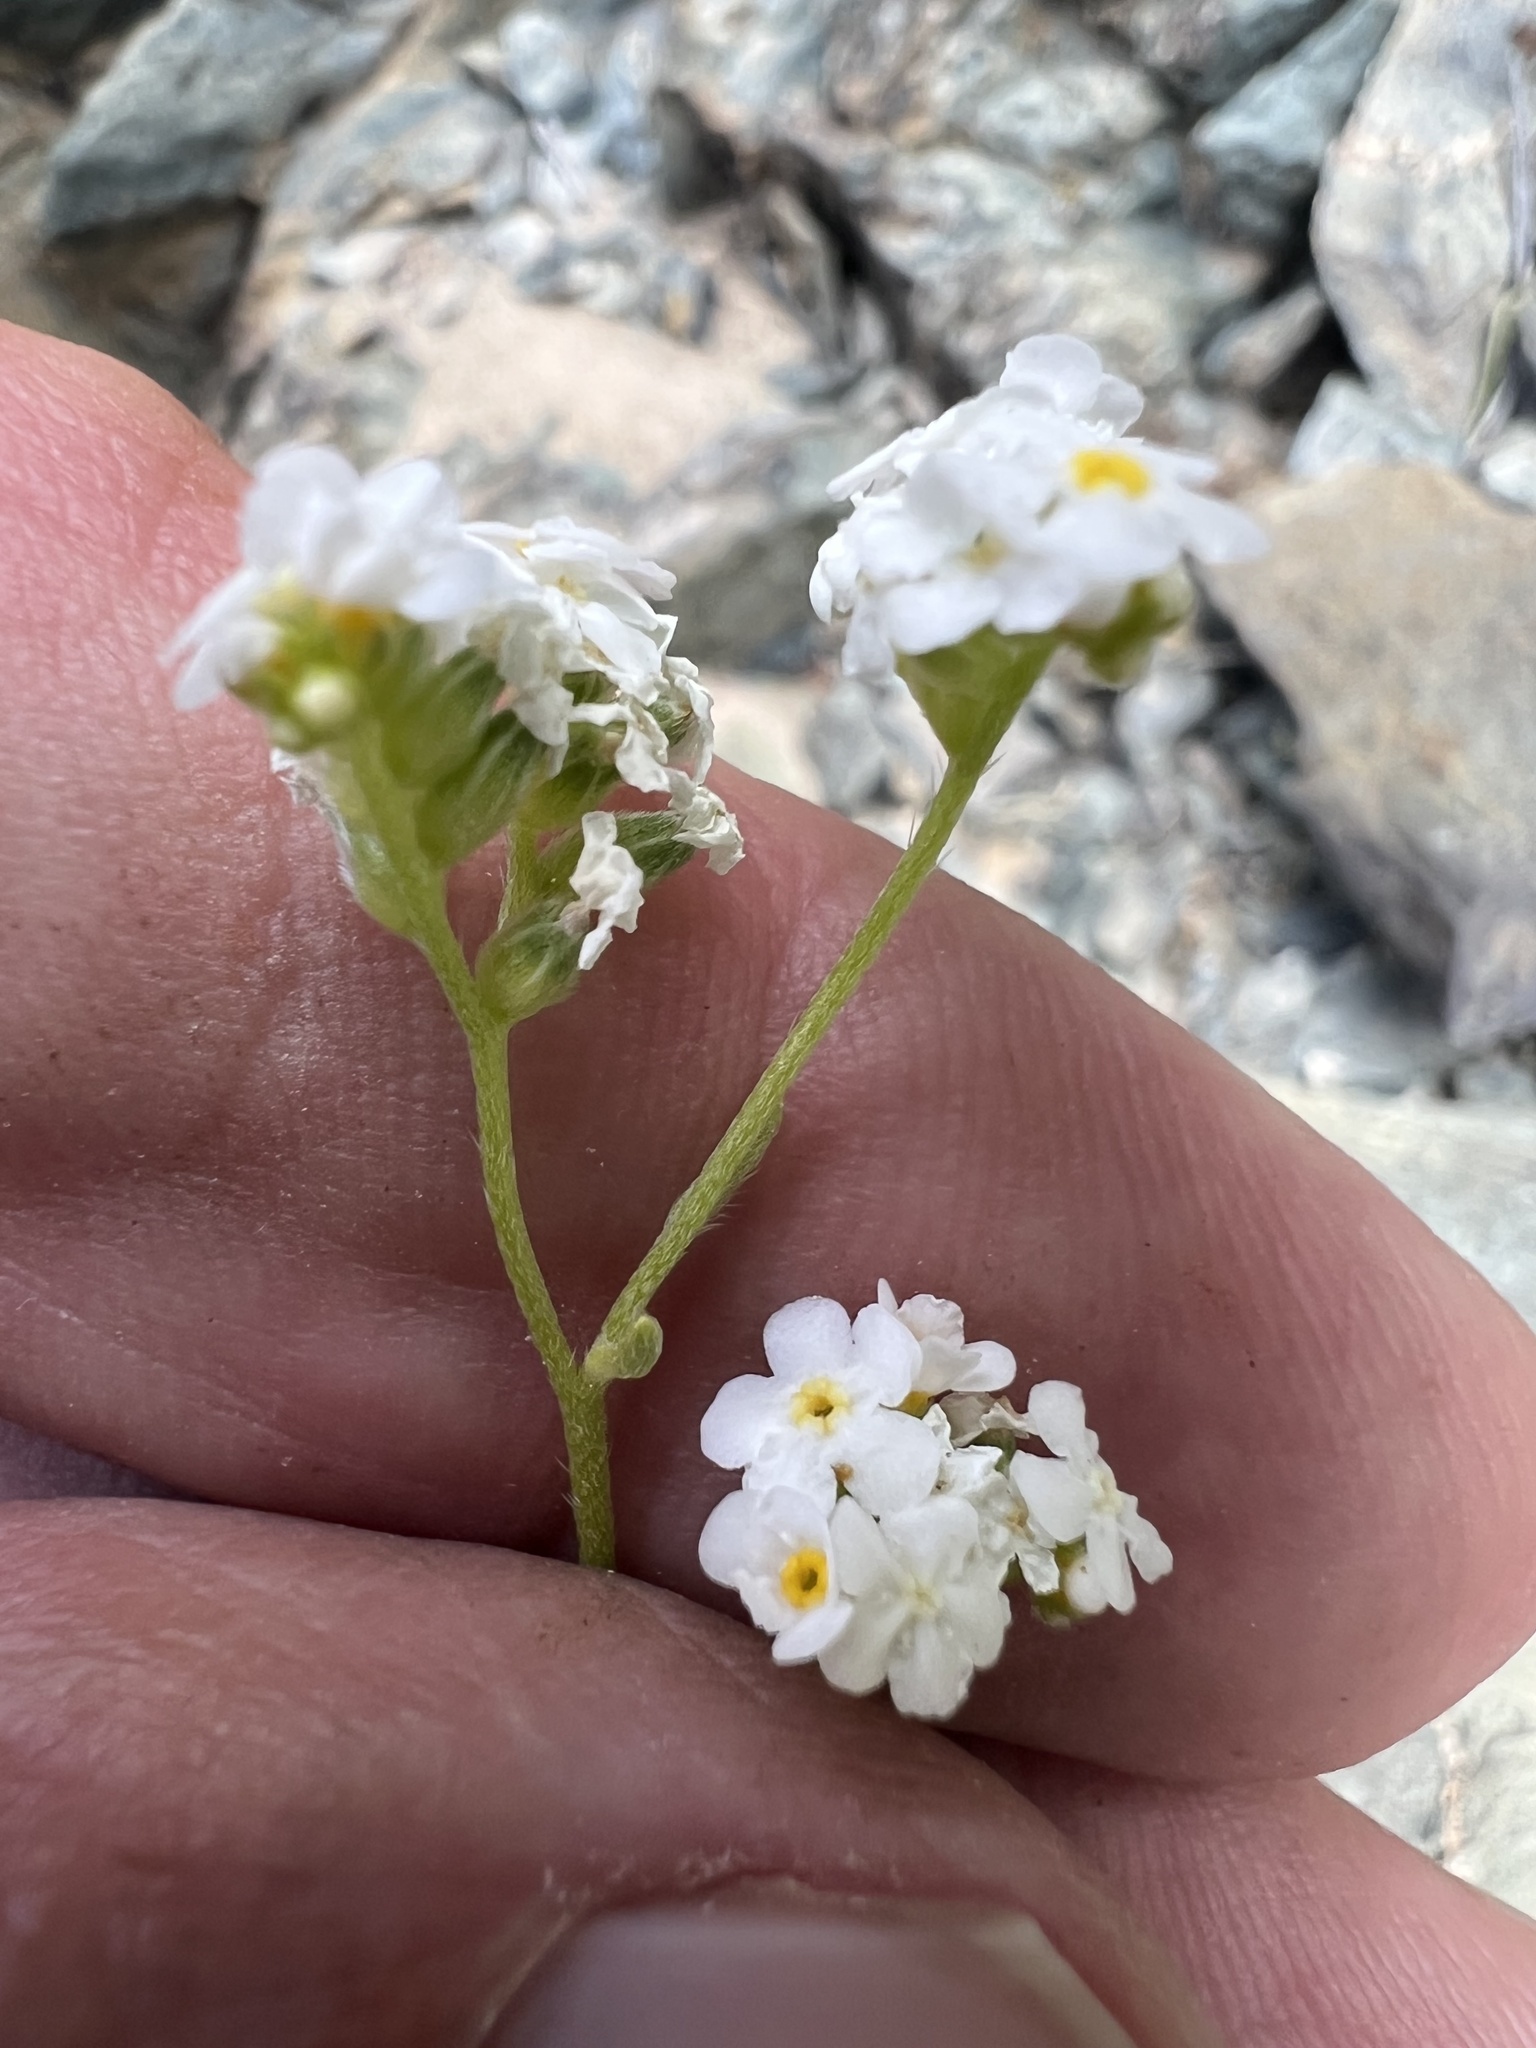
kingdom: Plantae
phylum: Tracheophyta
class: Magnoliopsida
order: Boraginales
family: Boraginaceae
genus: Cryptantha
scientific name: Cryptantha utahensis
